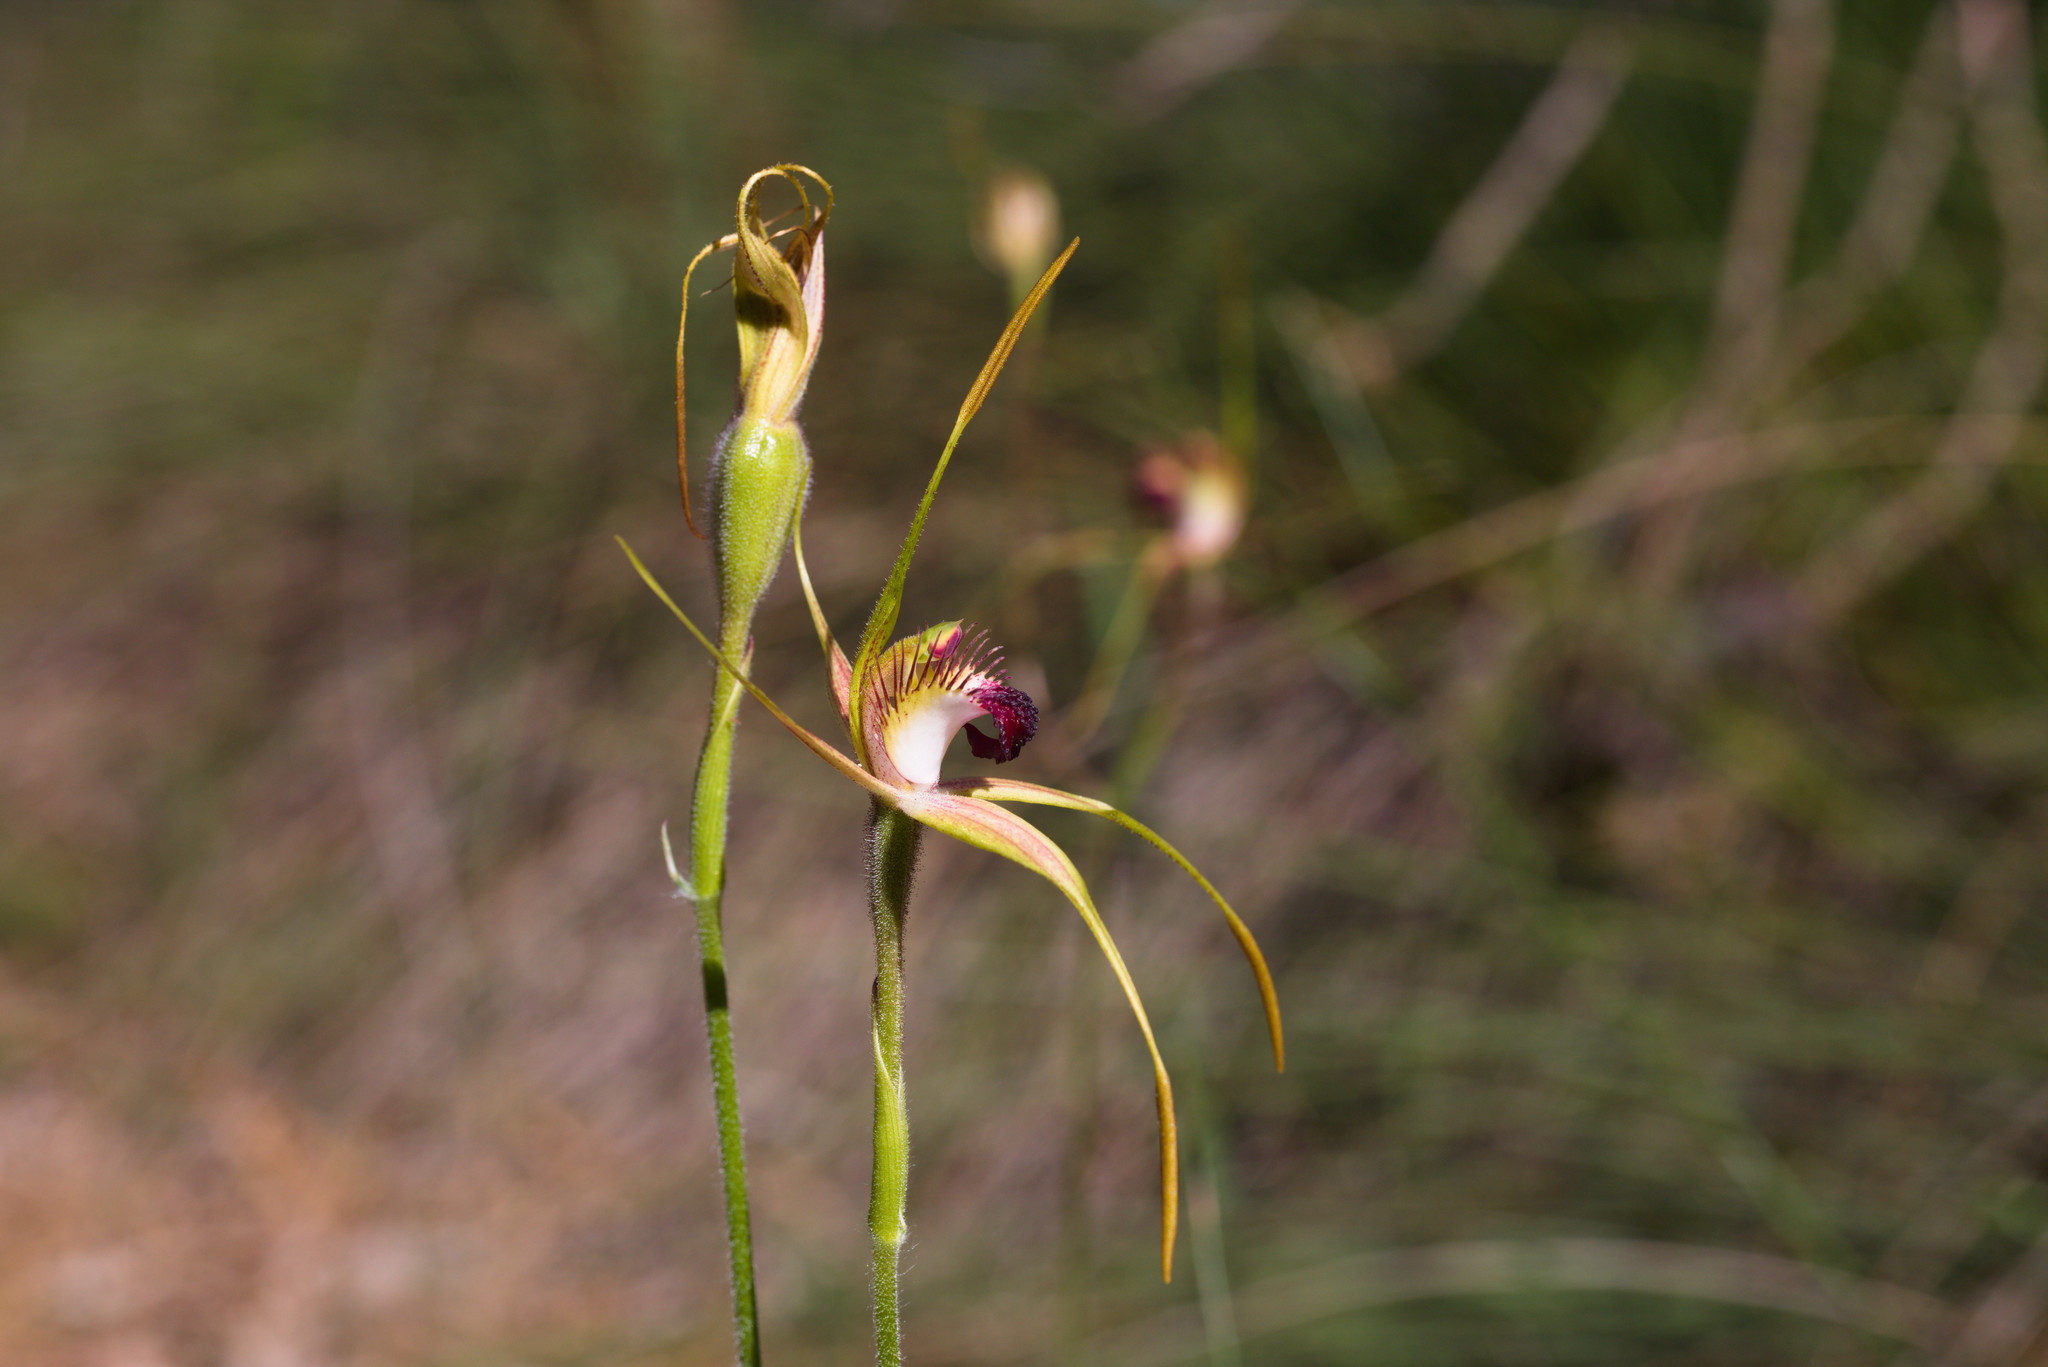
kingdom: Plantae
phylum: Tracheophyta
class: Liliopsida
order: Asparagales
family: Orchidaceae
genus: Caladenia
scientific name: Caladenia pectinata
